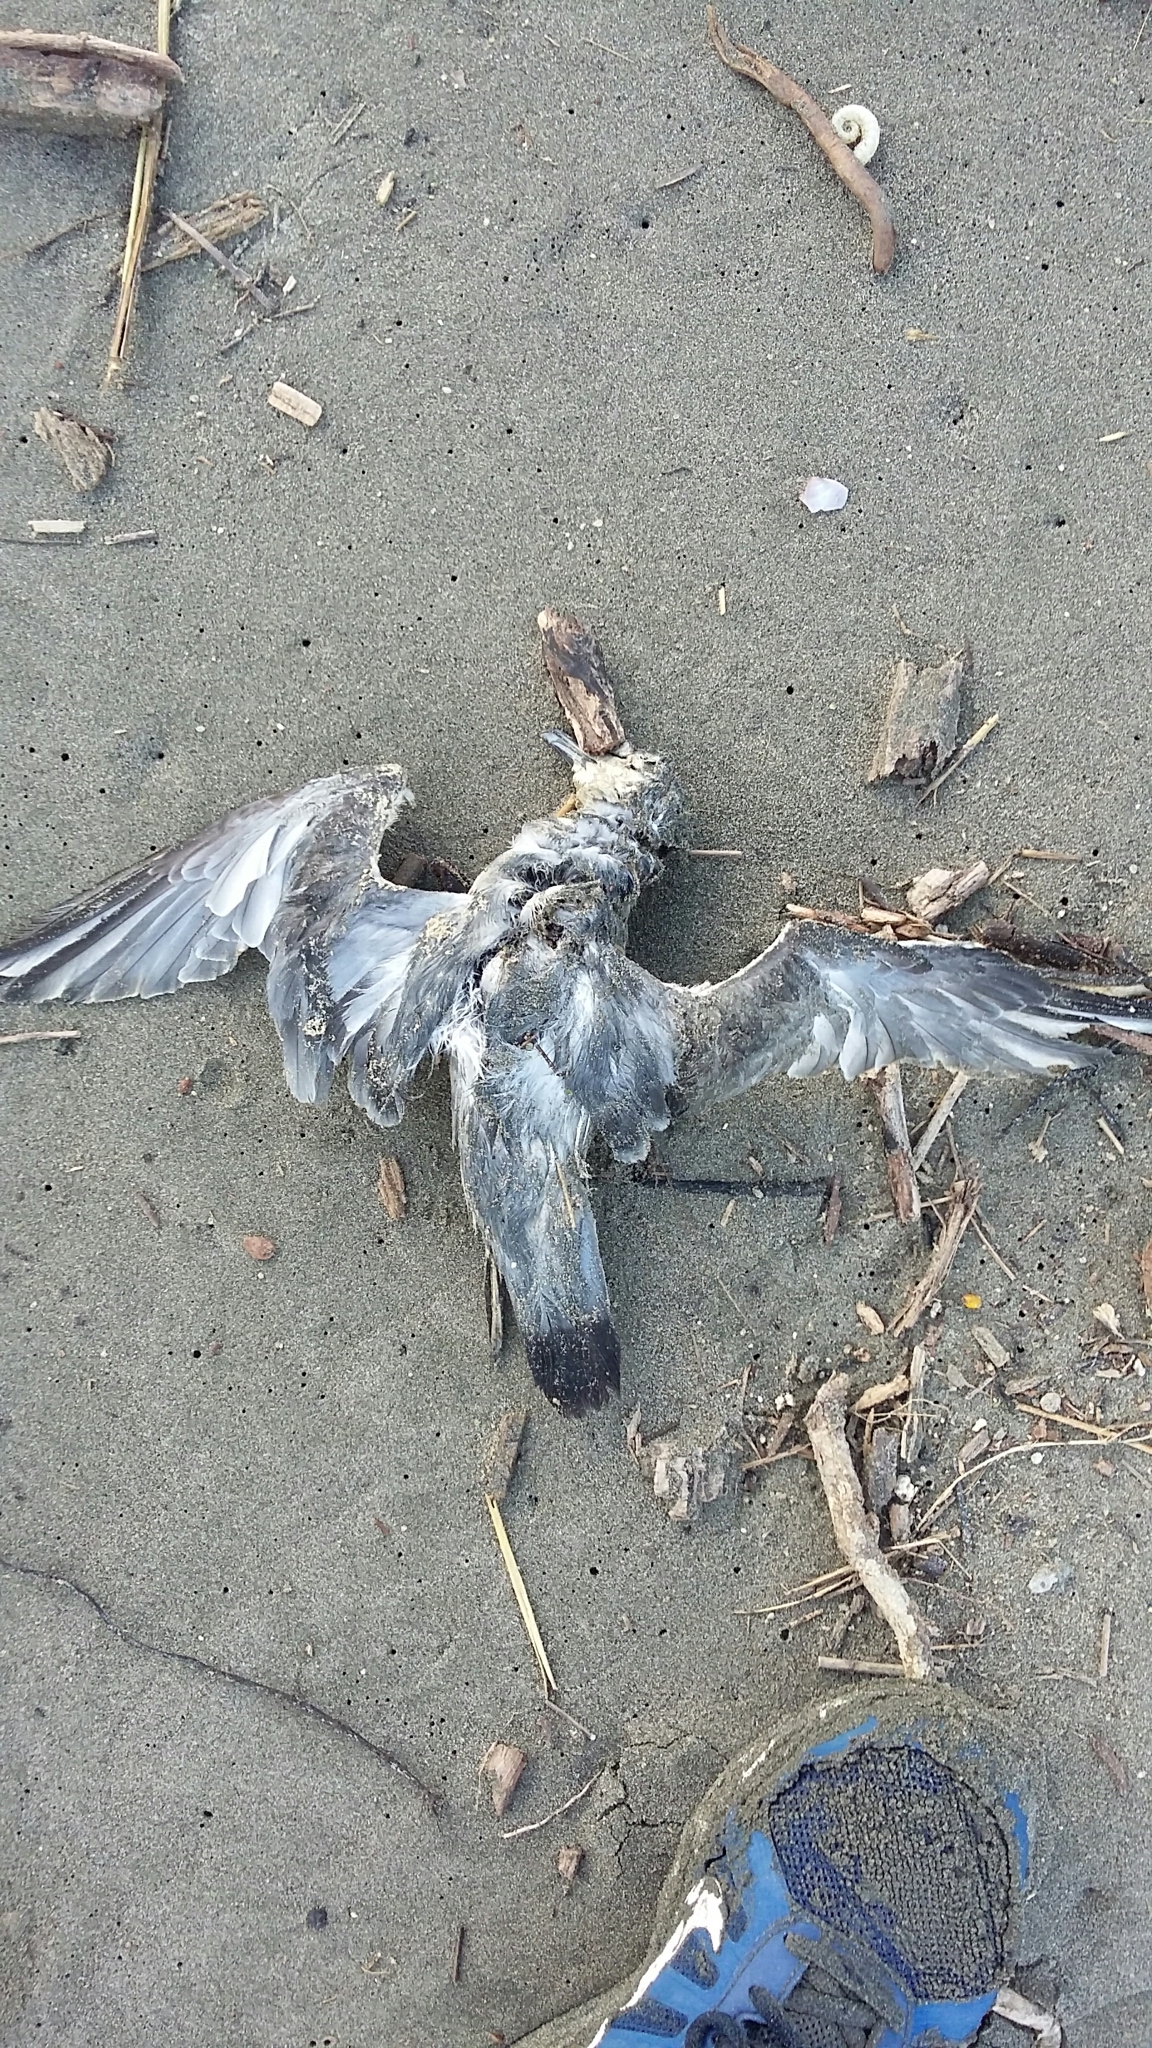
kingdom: Animalia
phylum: Chordata
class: Aves
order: Procellariiformes
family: Procellariidae
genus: Pachyptila
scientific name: Pachyptila turtur
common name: Fairy prion
